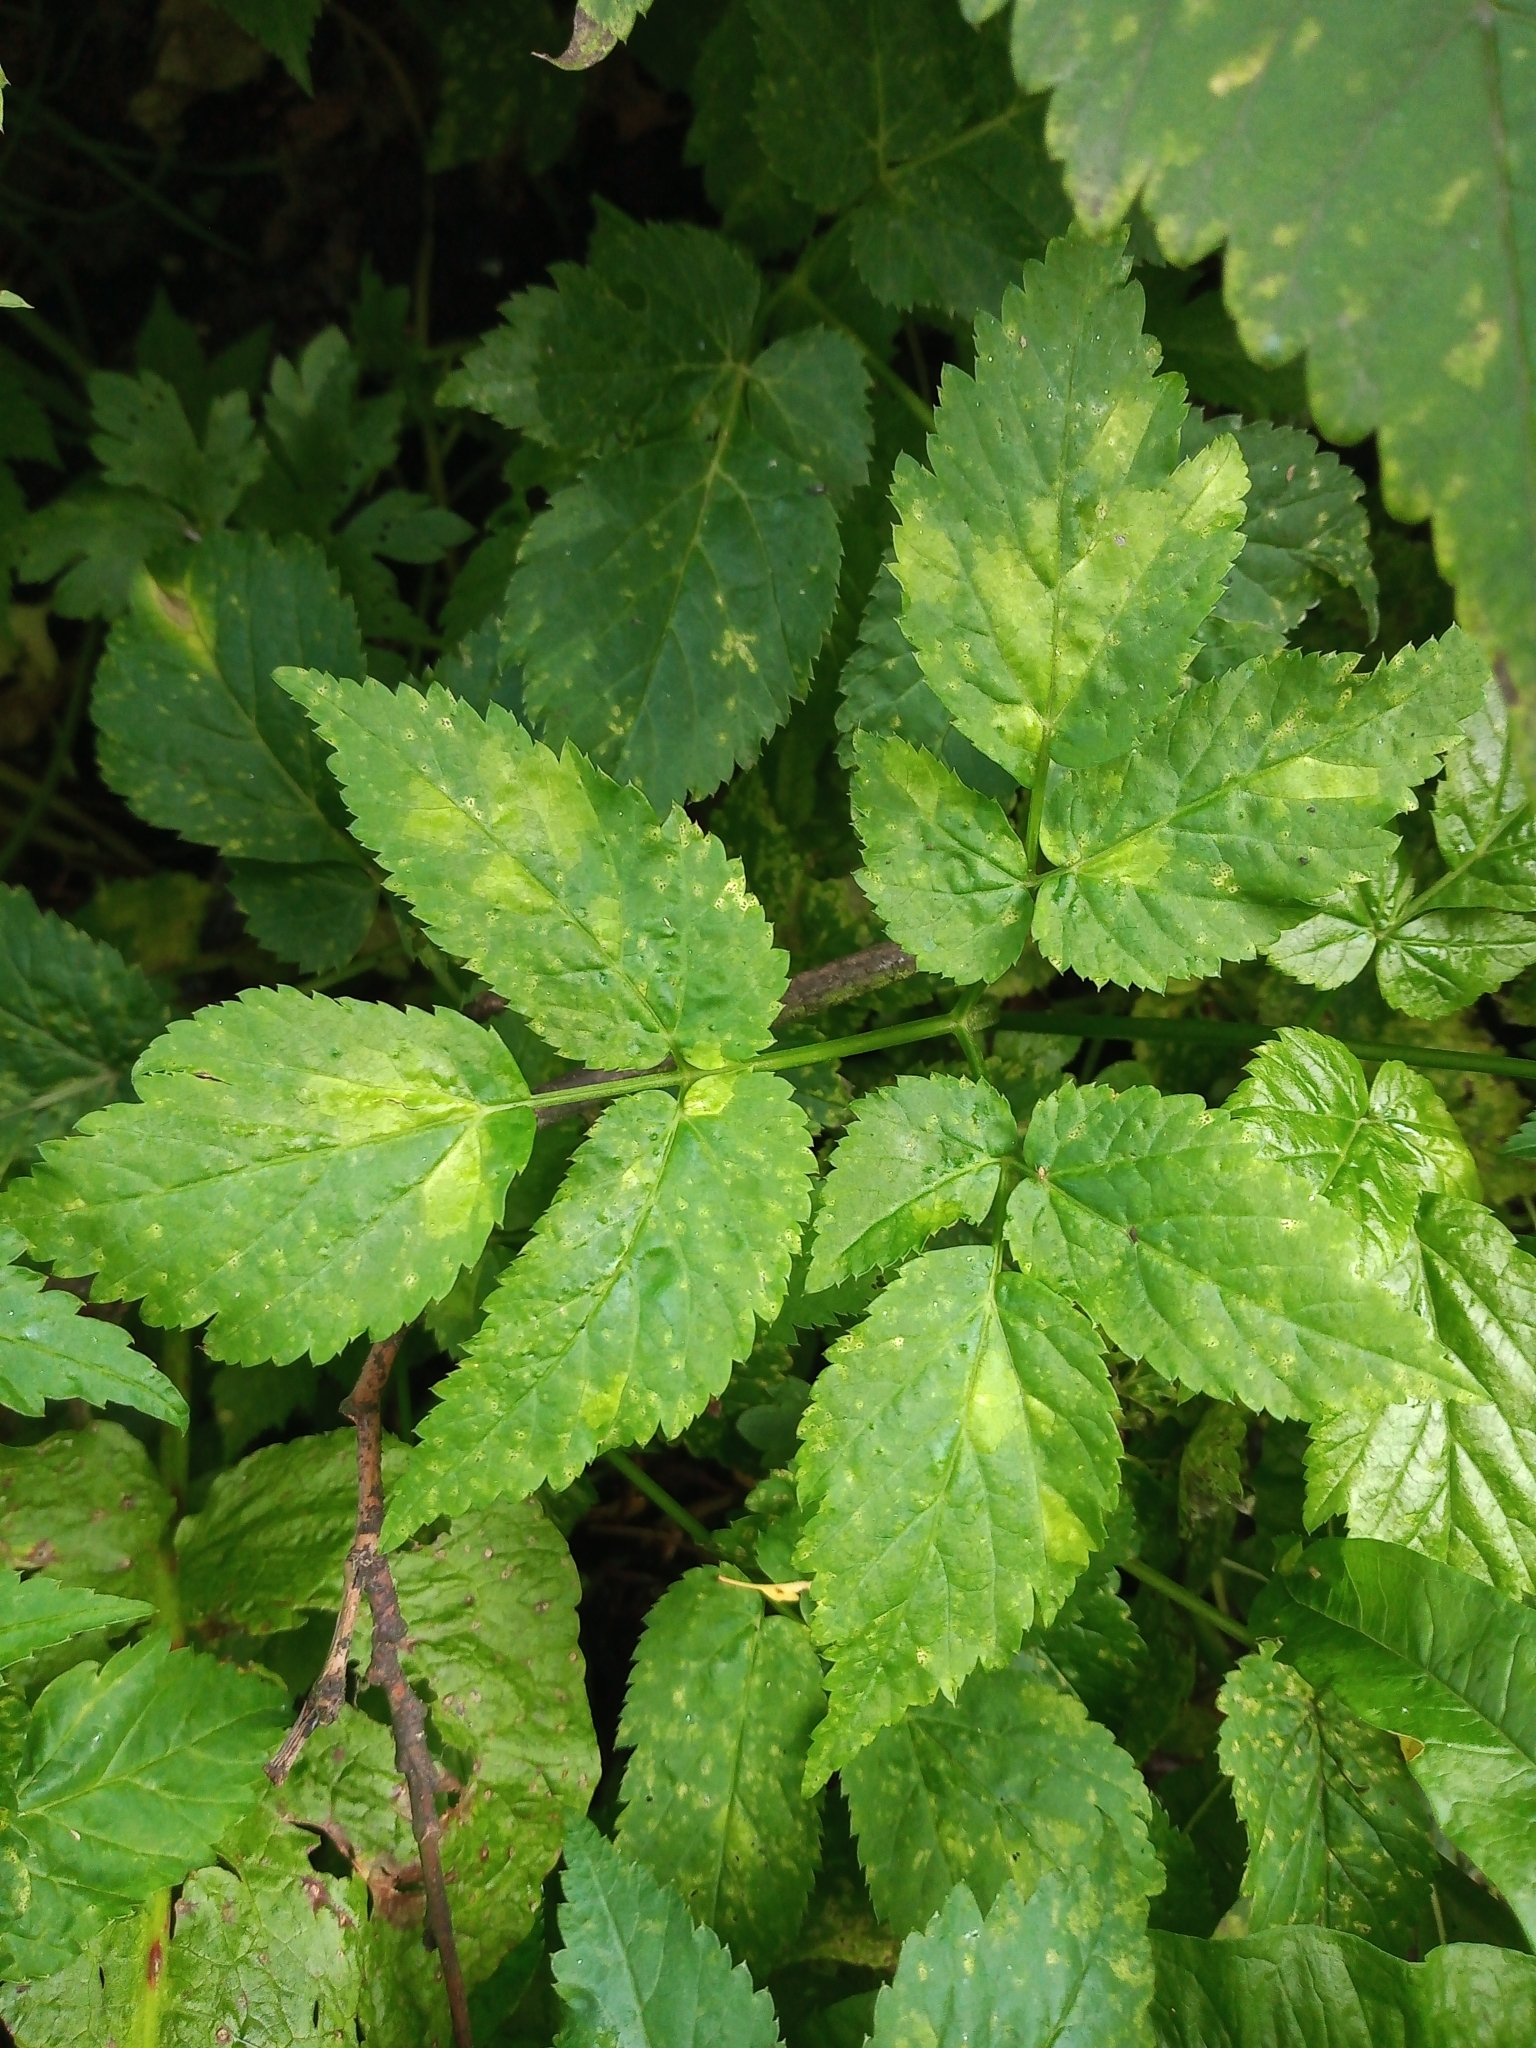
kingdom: Plantae
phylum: Tracheophyta
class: Magnoliopsida
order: Apiales
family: Apiaceae
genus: Aegopodium
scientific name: Aegopodium podagraria
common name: Ground-elder
